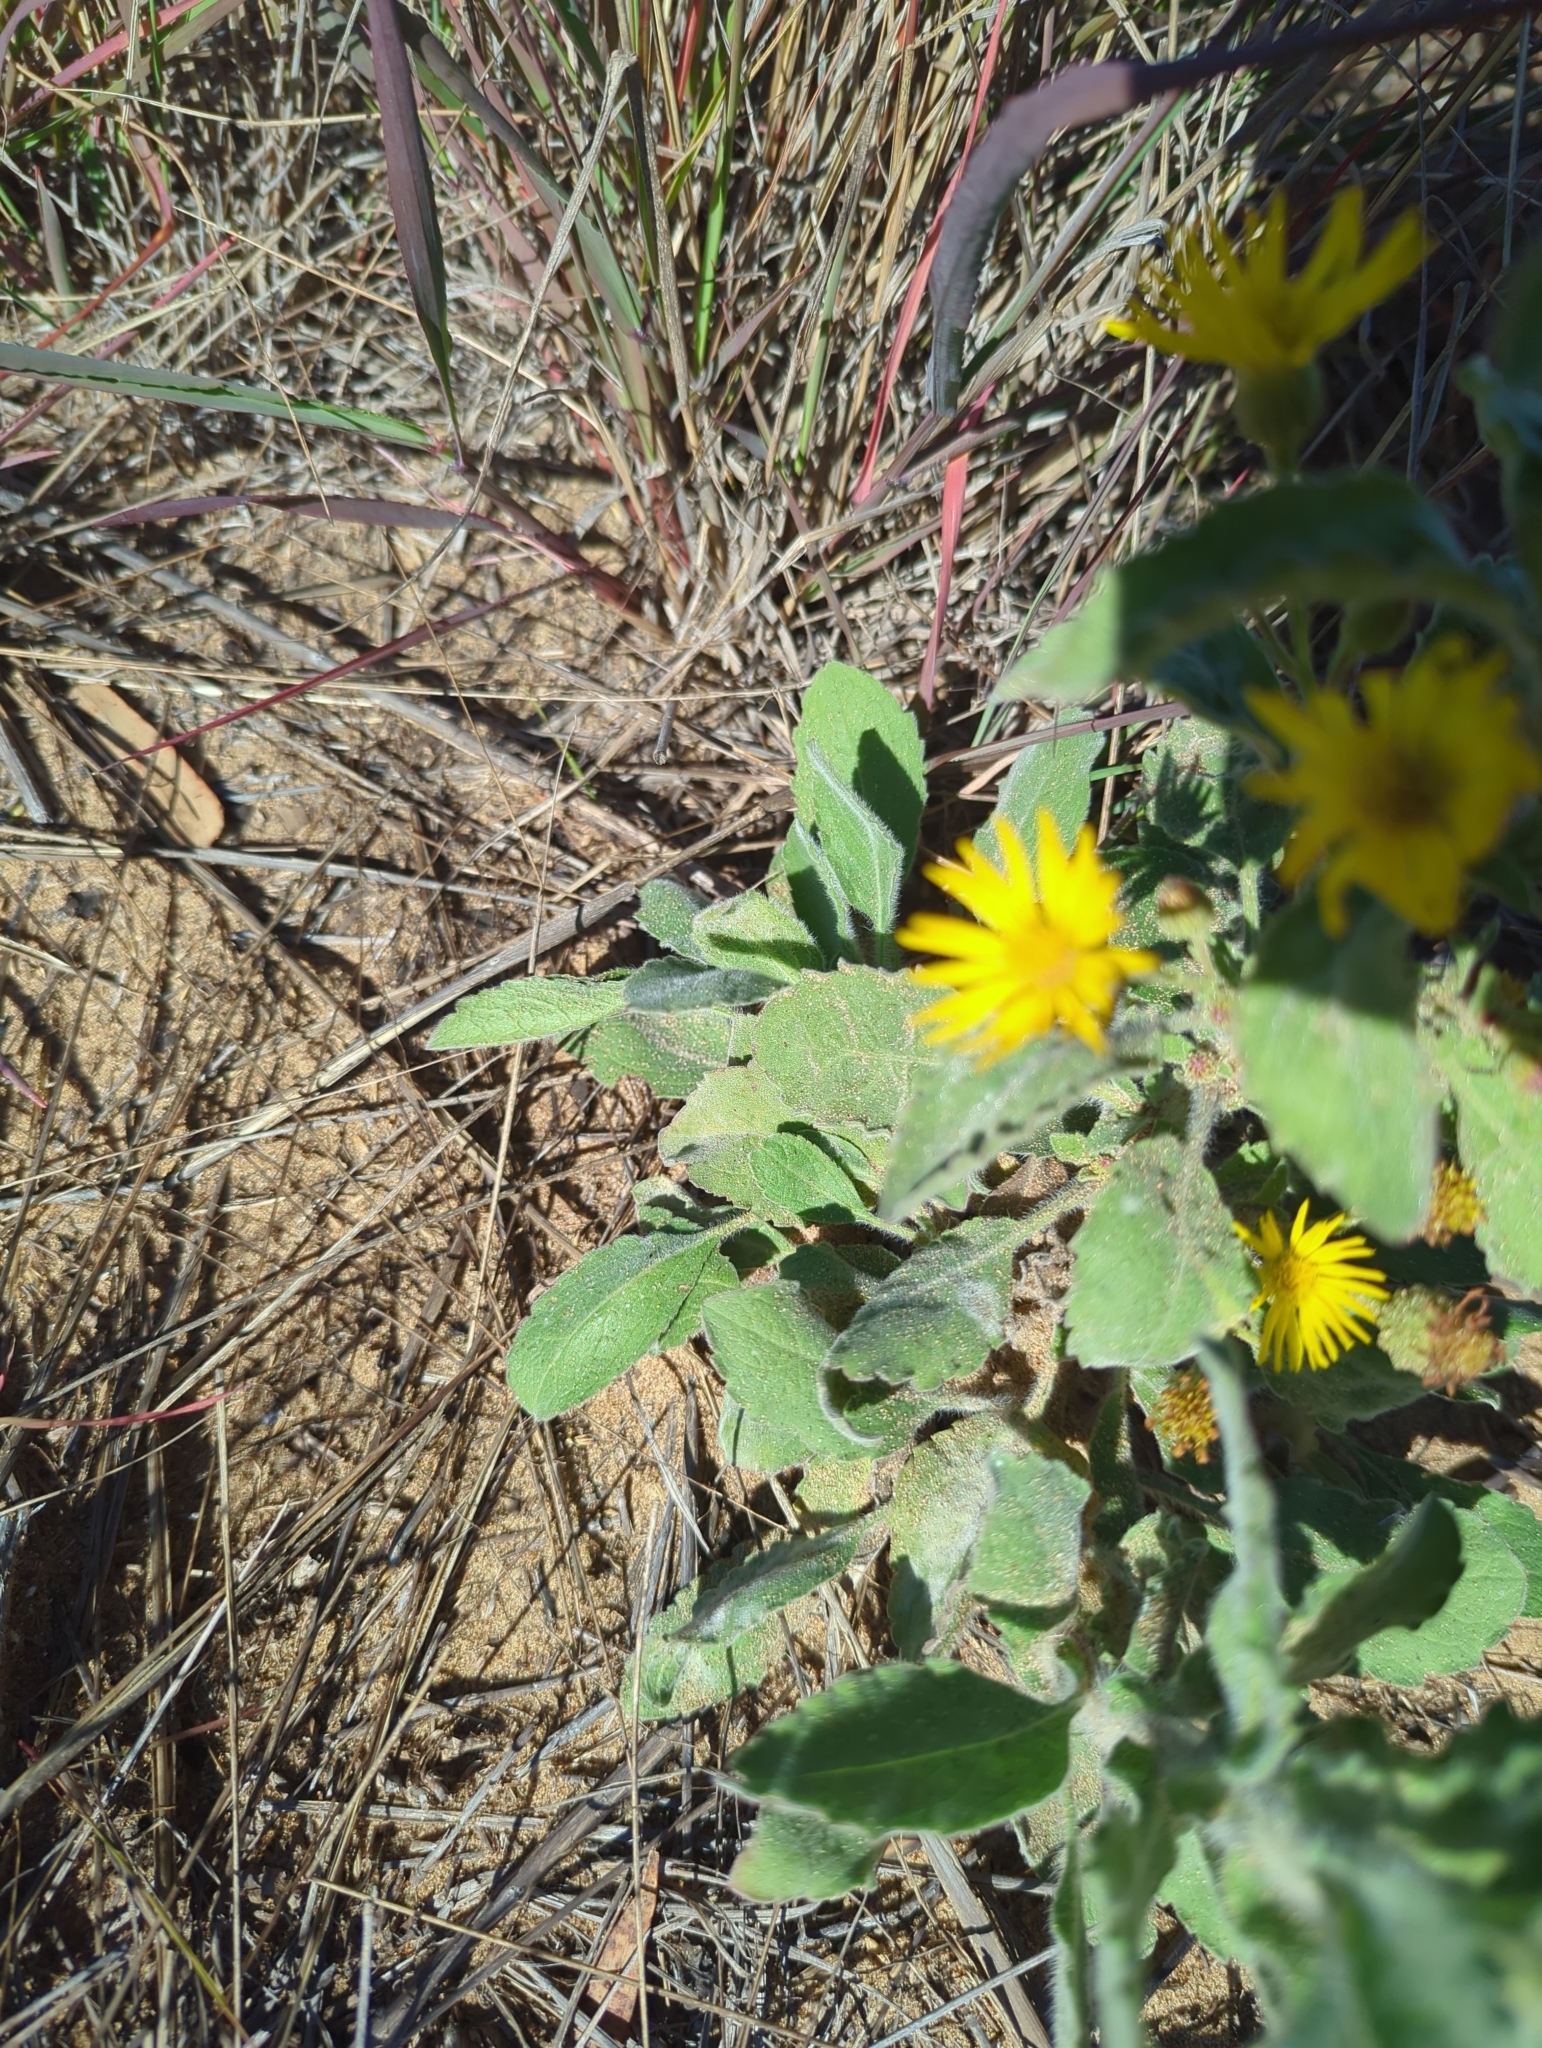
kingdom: Plantae
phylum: Tracheophyta
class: Magnoliopsida
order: Asterales
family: Asteraceae
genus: Heterotheca
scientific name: Heterotheca grandiflora
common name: Telegraphweed
